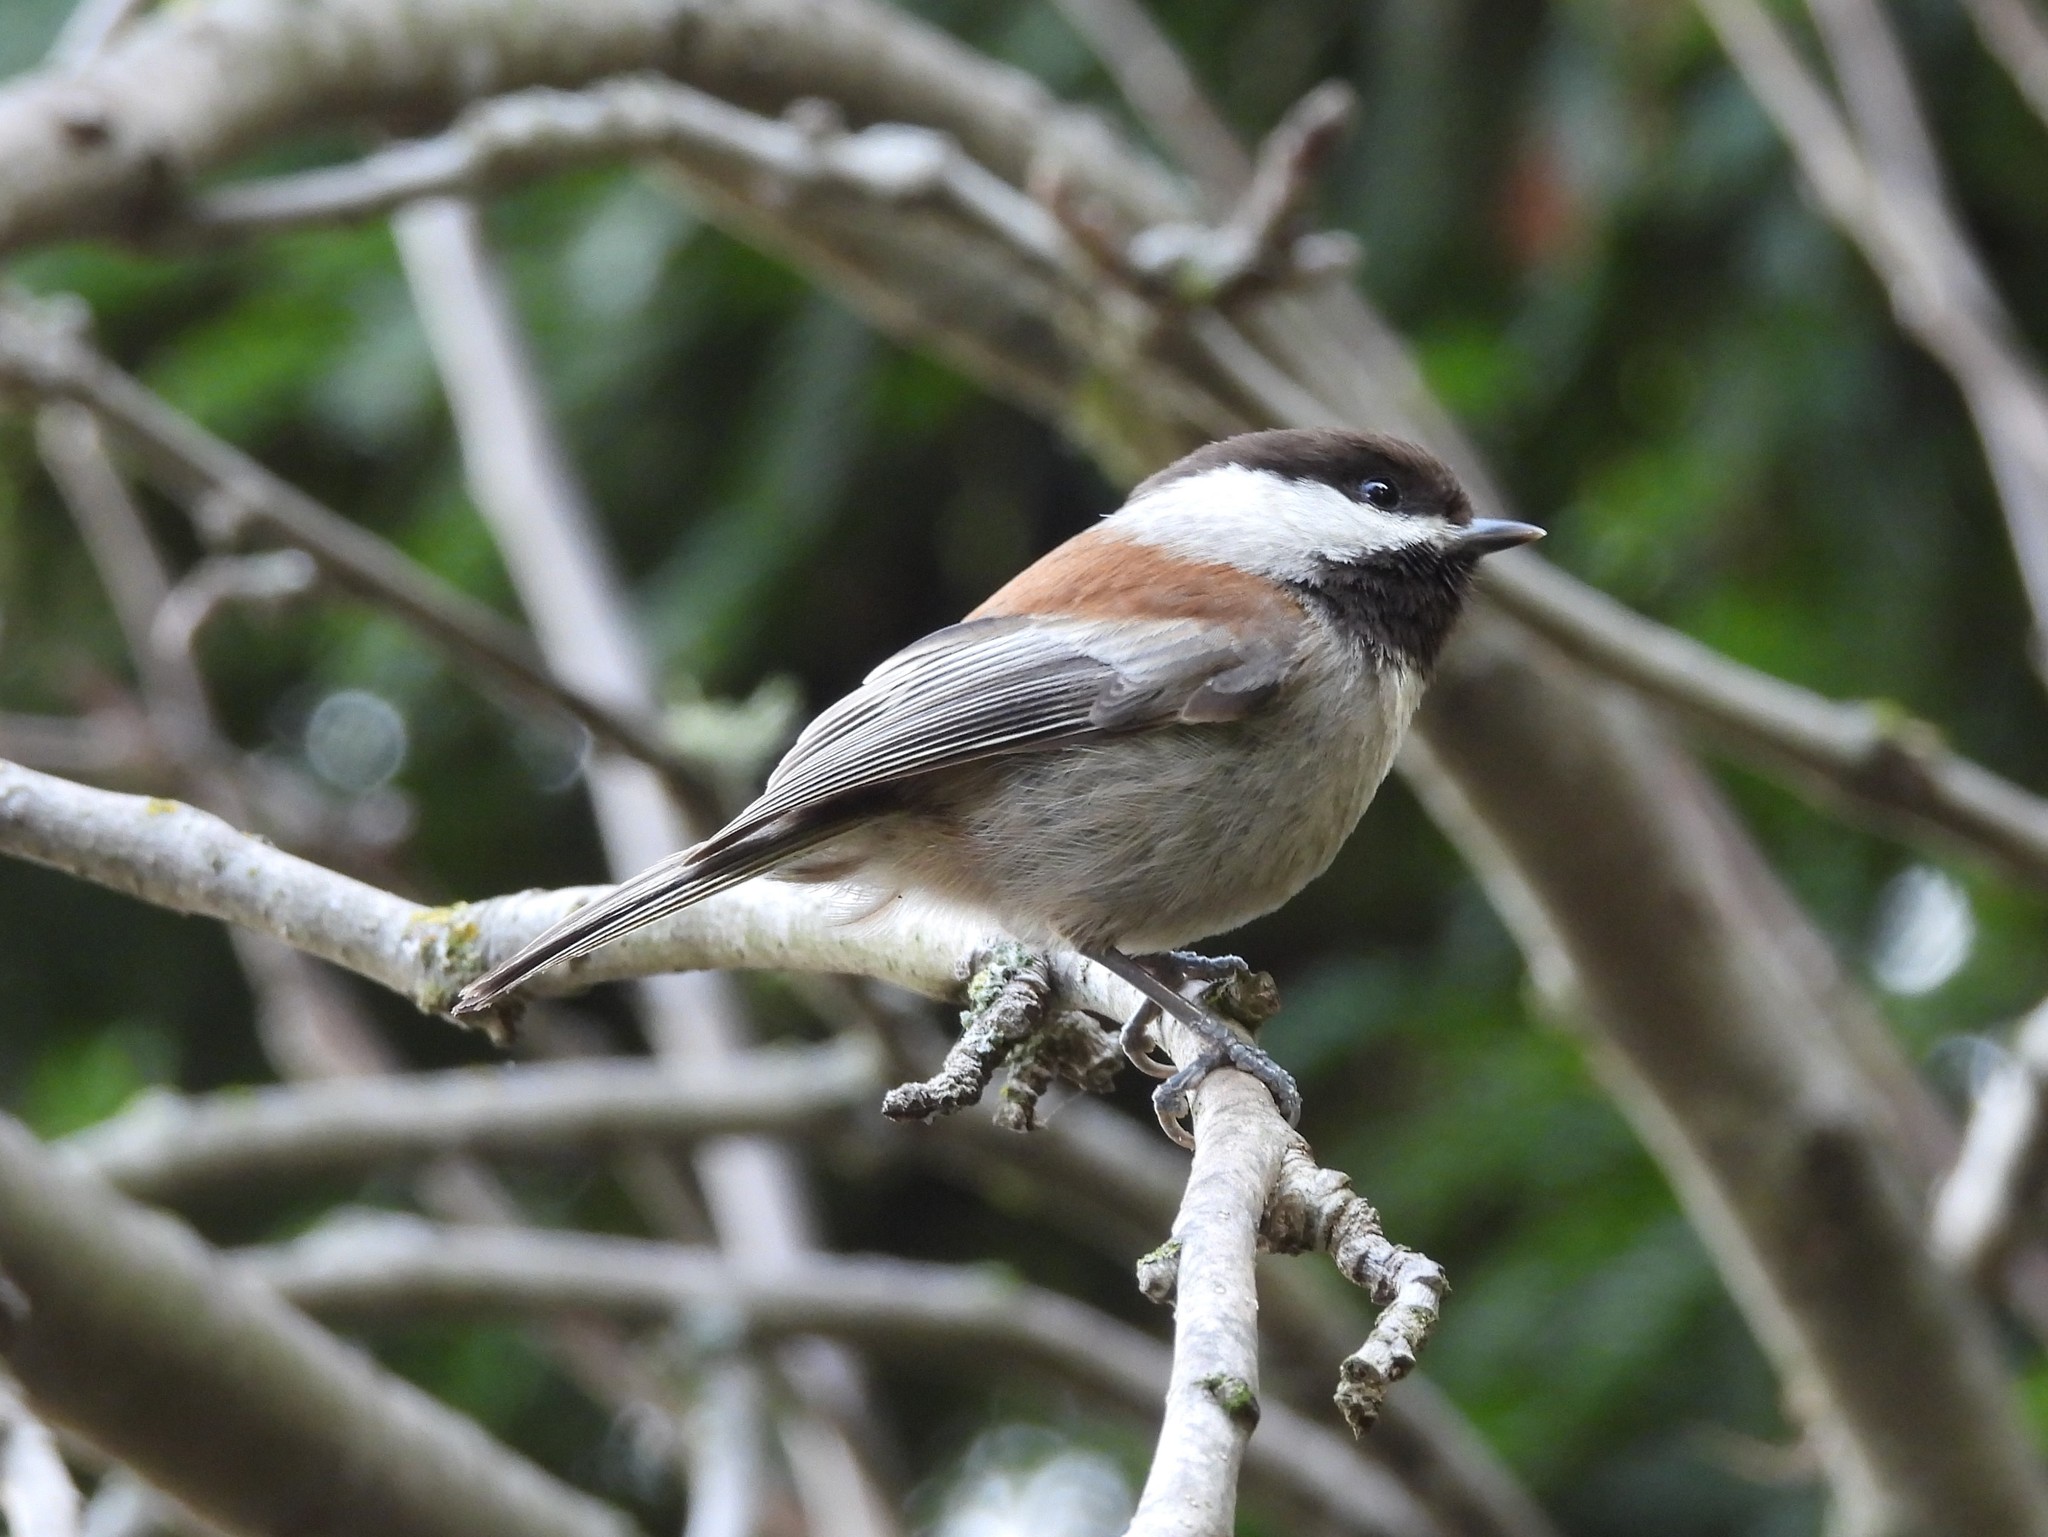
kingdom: Animalia
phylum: Chordata
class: Aves
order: Passeriformes
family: Paridae
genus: Poecile
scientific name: Poecile rufescens
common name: Chestnut-backed chickadee
